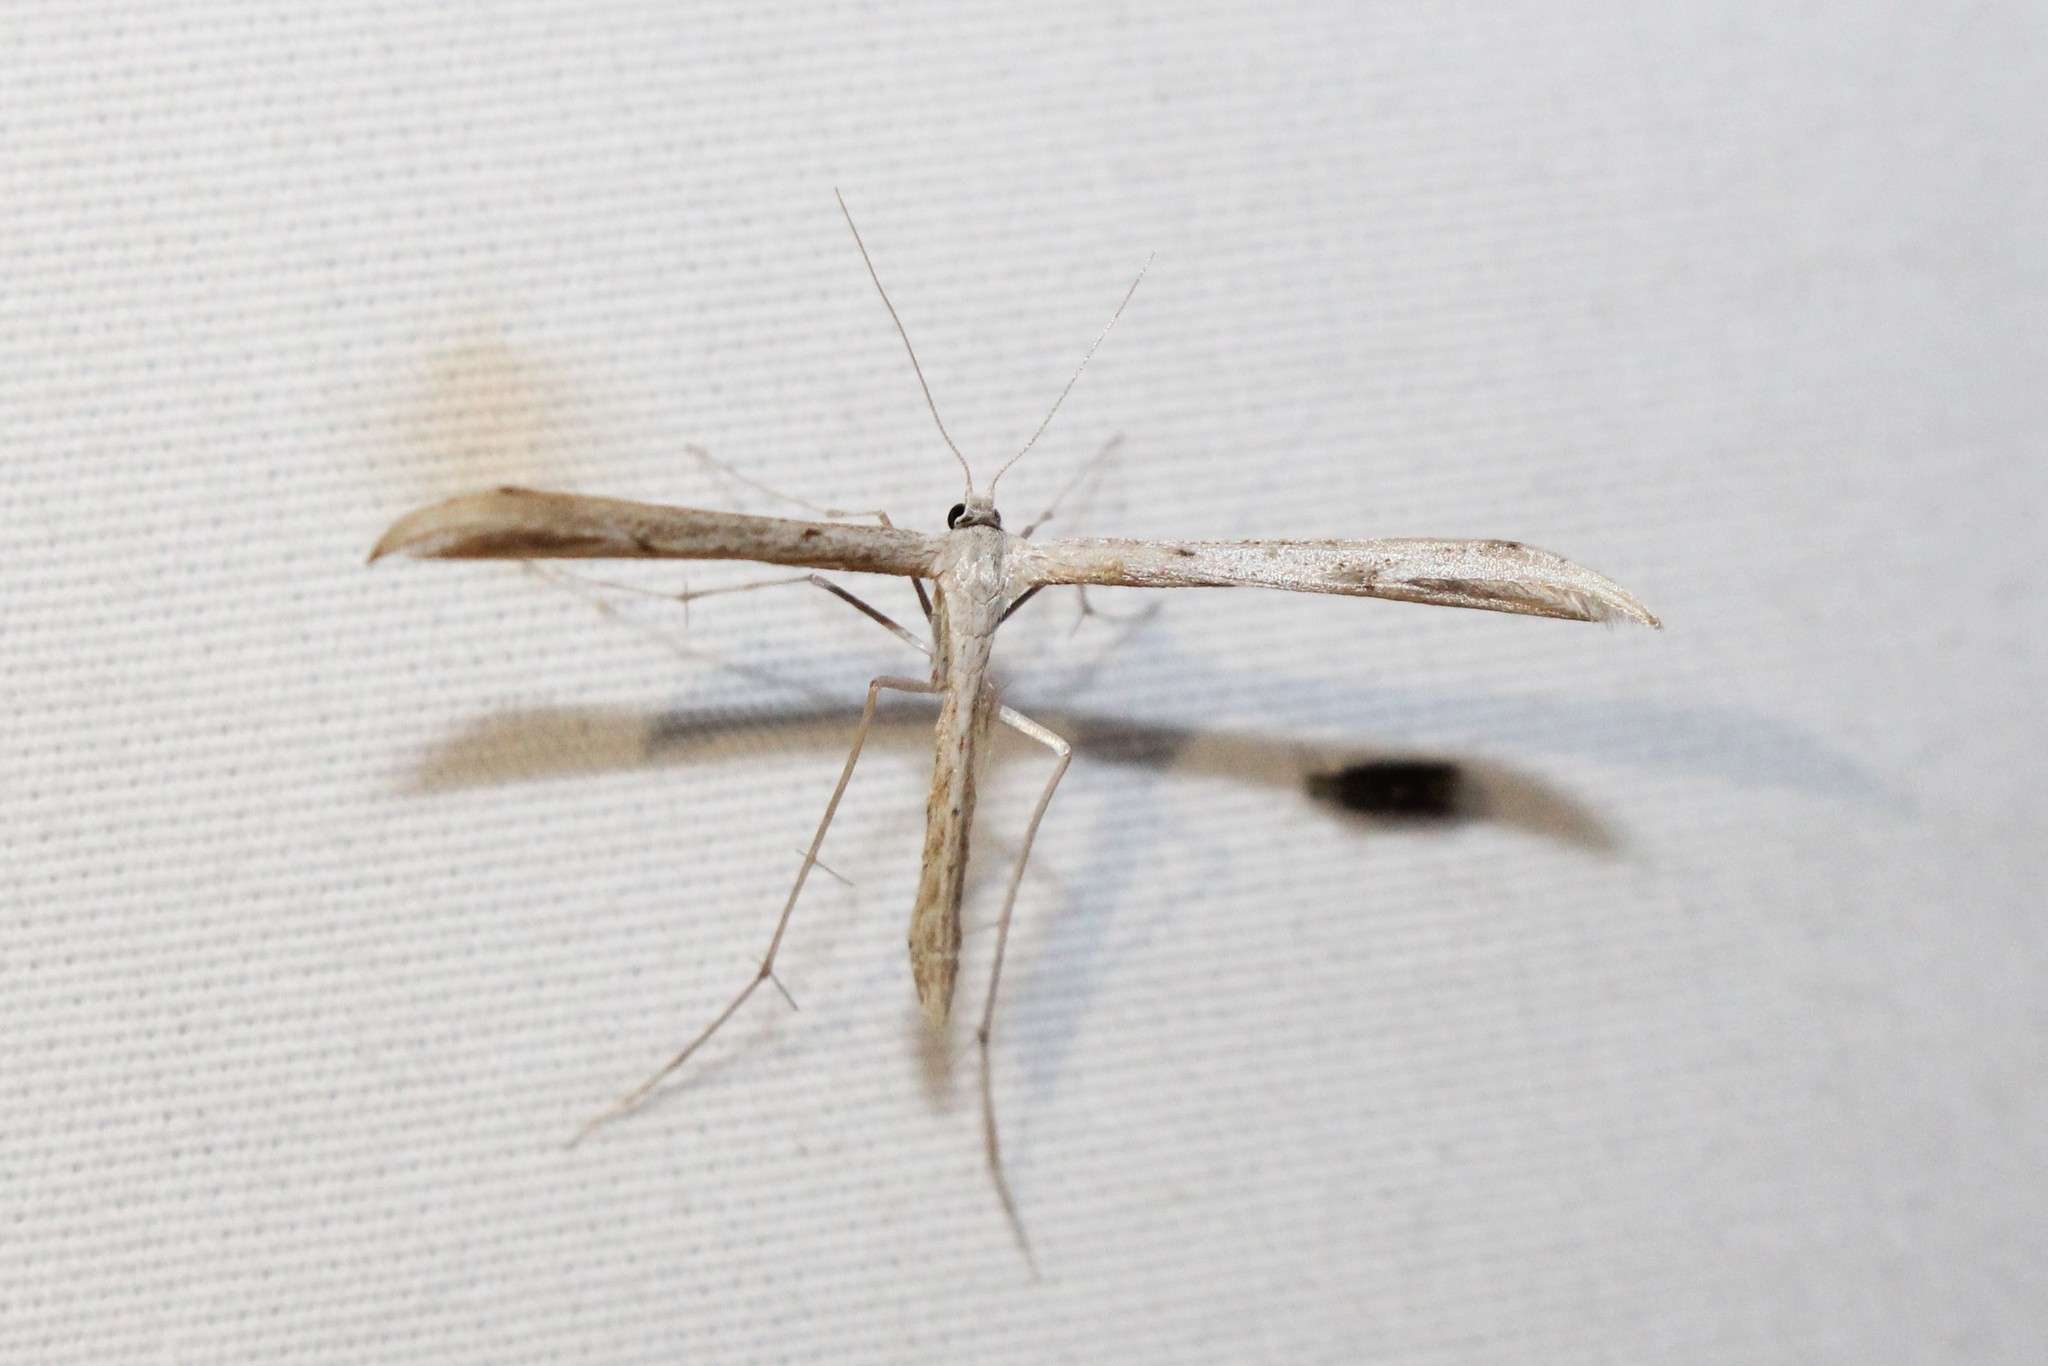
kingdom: Animalia
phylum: Arthropoda
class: Insecta
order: Lepidoptera
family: Pterophoridae
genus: Emmelina
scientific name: Emmelina monodactyla
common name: Common plume
